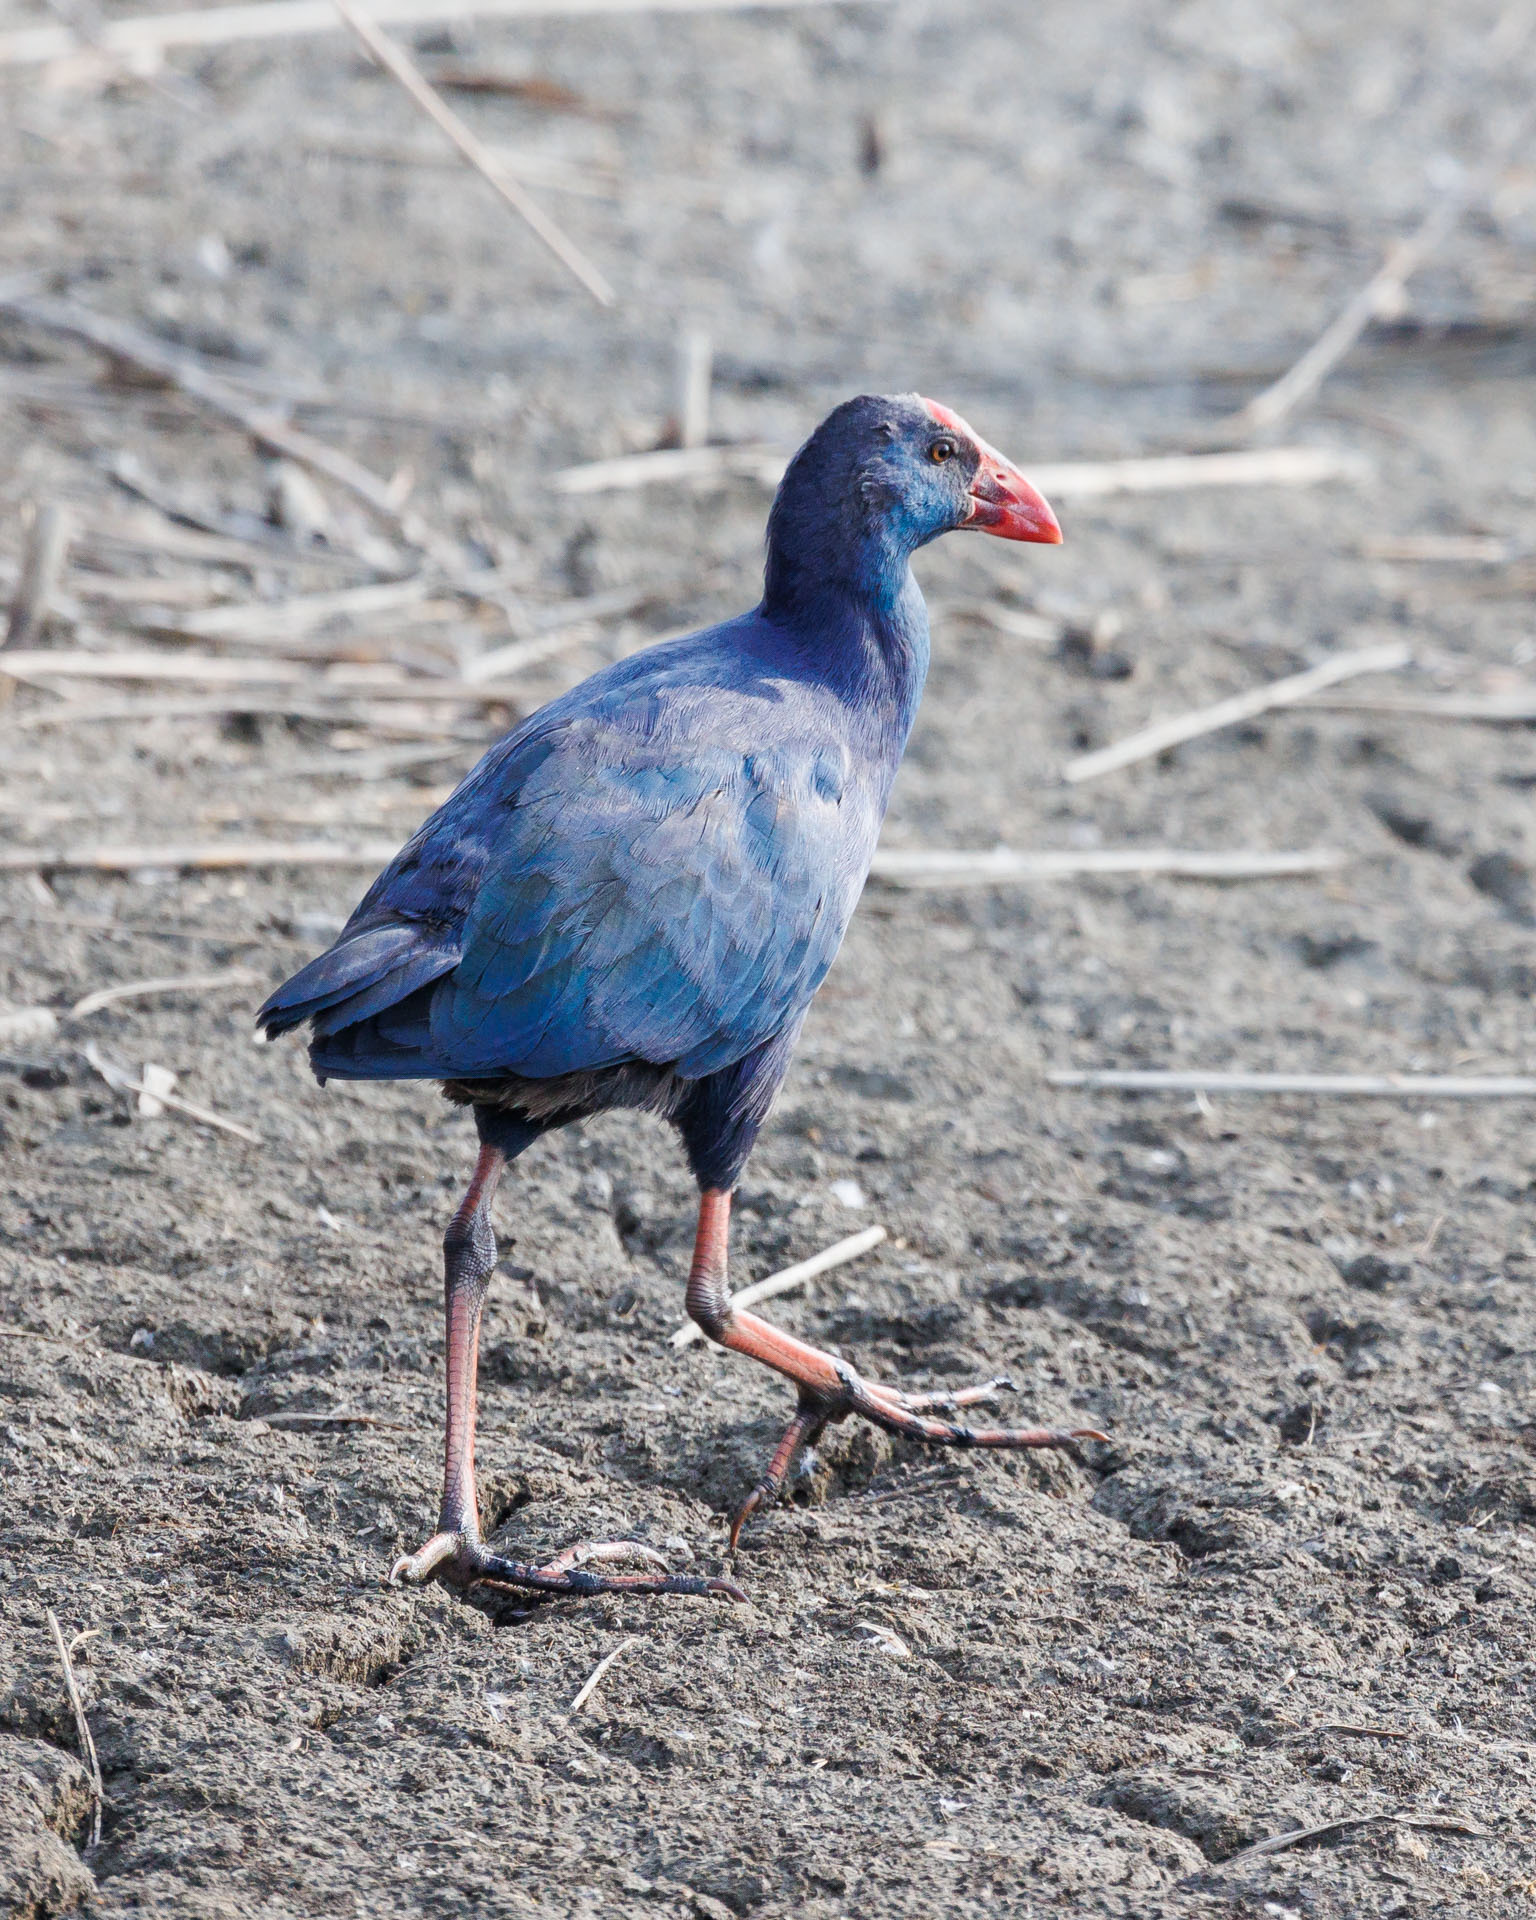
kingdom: Animalia
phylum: Chordata
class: Aves
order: Gruiformes
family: Rallidae
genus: Porphyrio
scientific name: Porphyrio porphyrio
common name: Purple swamphen
